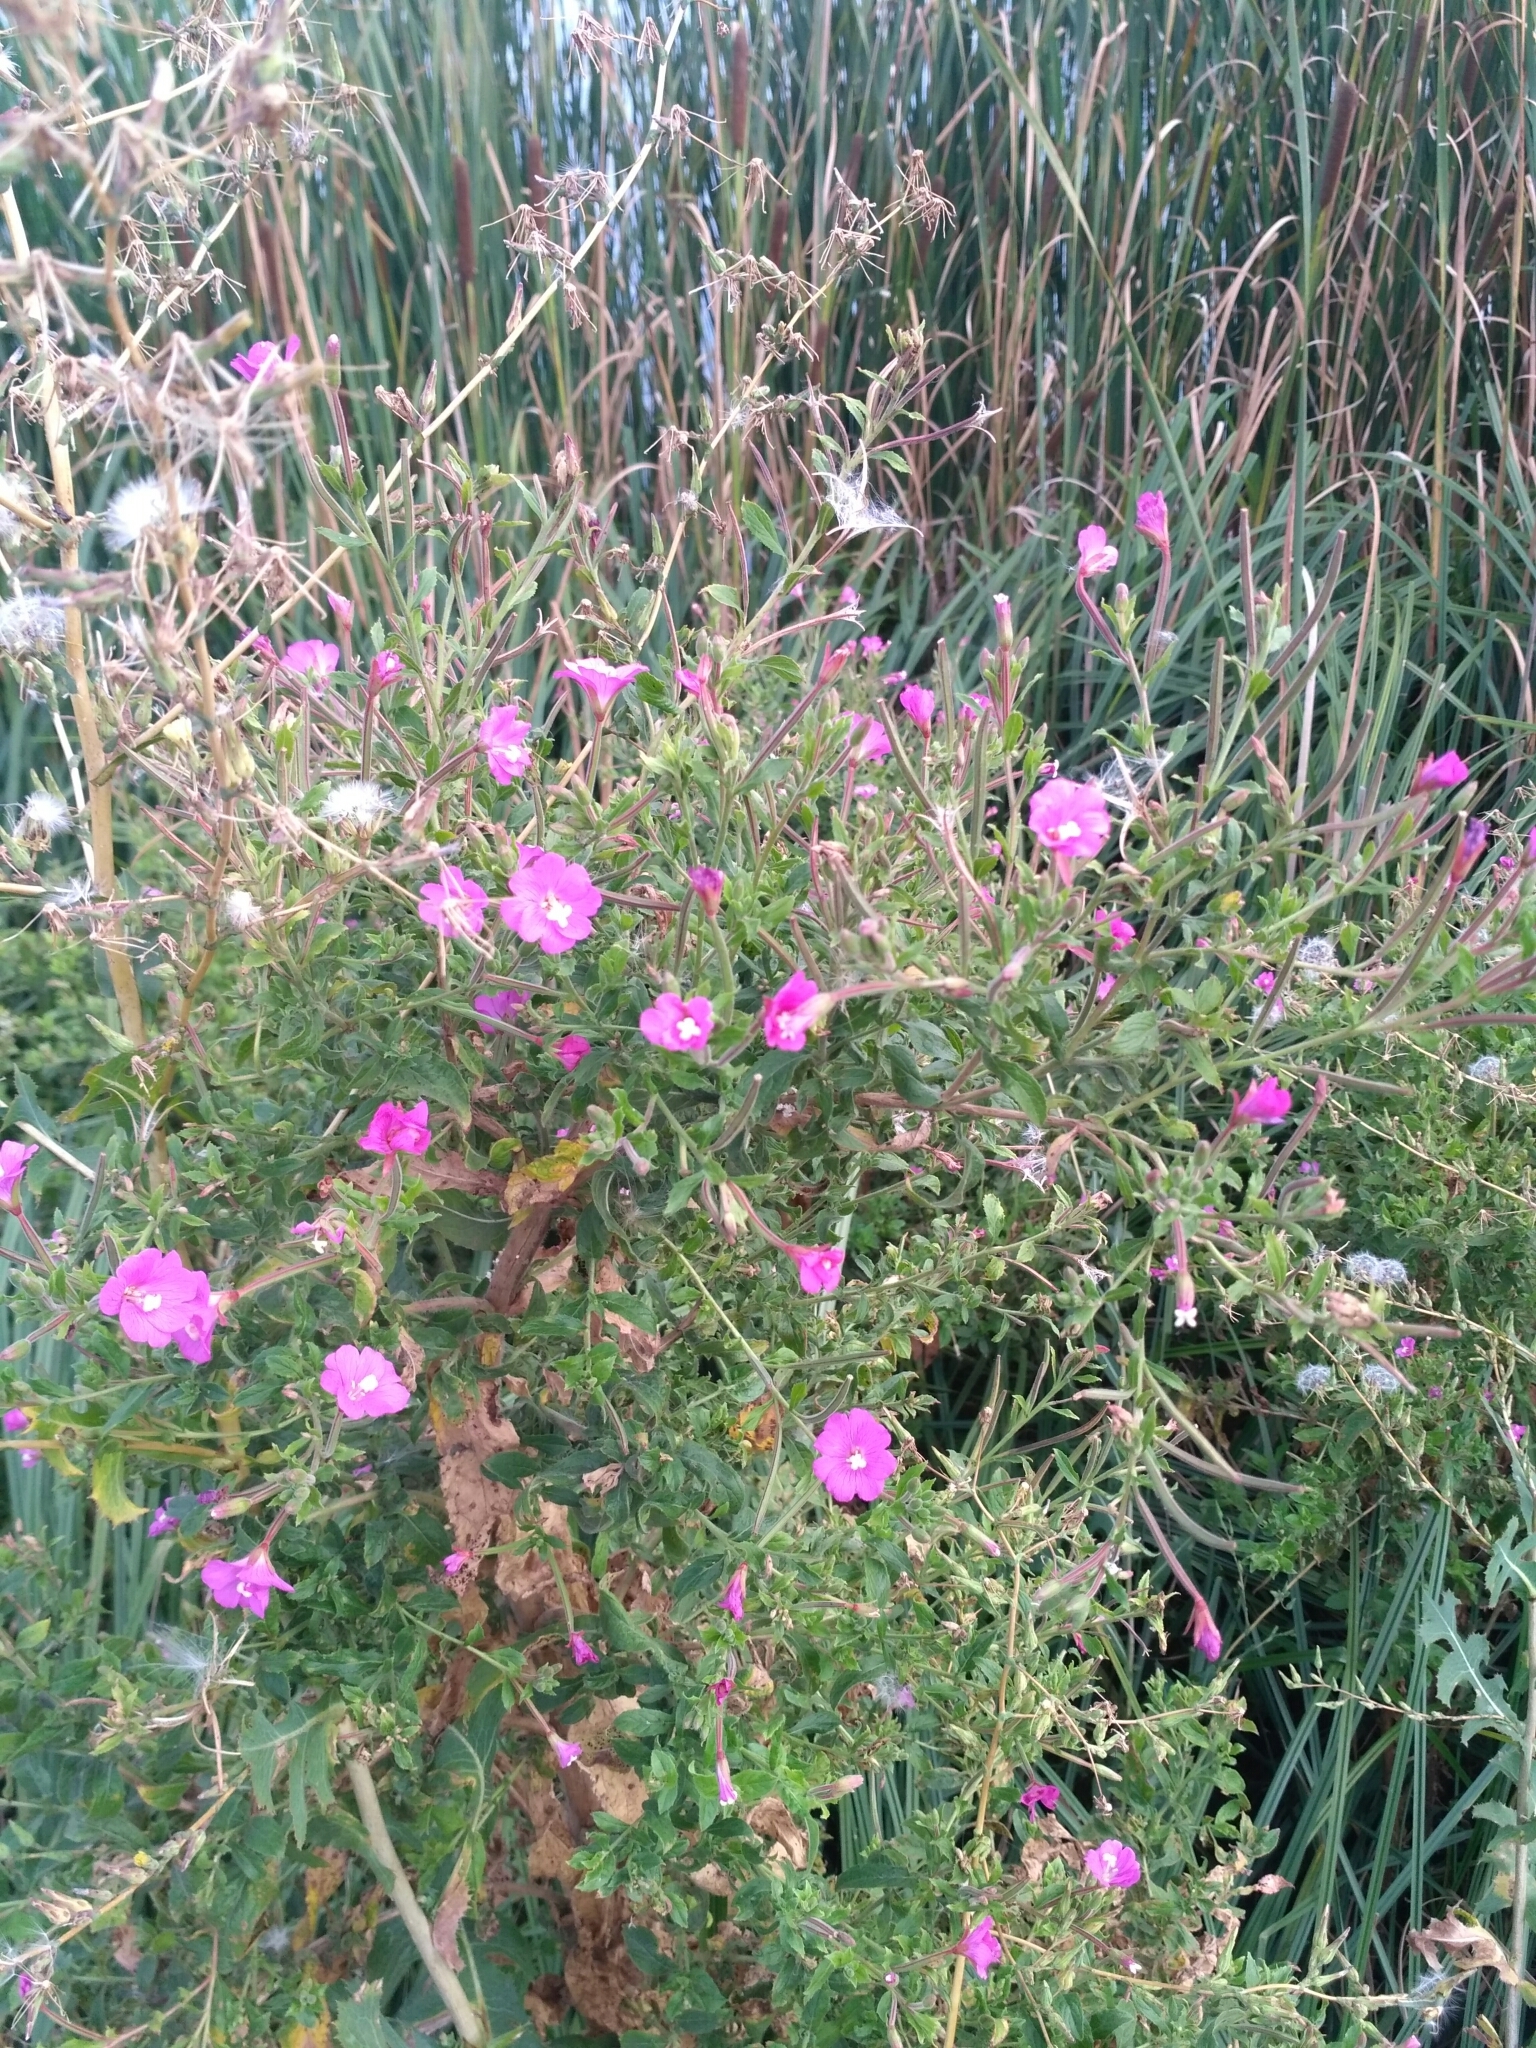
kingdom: Plantae
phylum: Tracheophyta
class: Magnoliopsida
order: Myrtales
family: Onagraceae
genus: Epilobium
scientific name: Epilobium hirsutum
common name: Great willowherb
